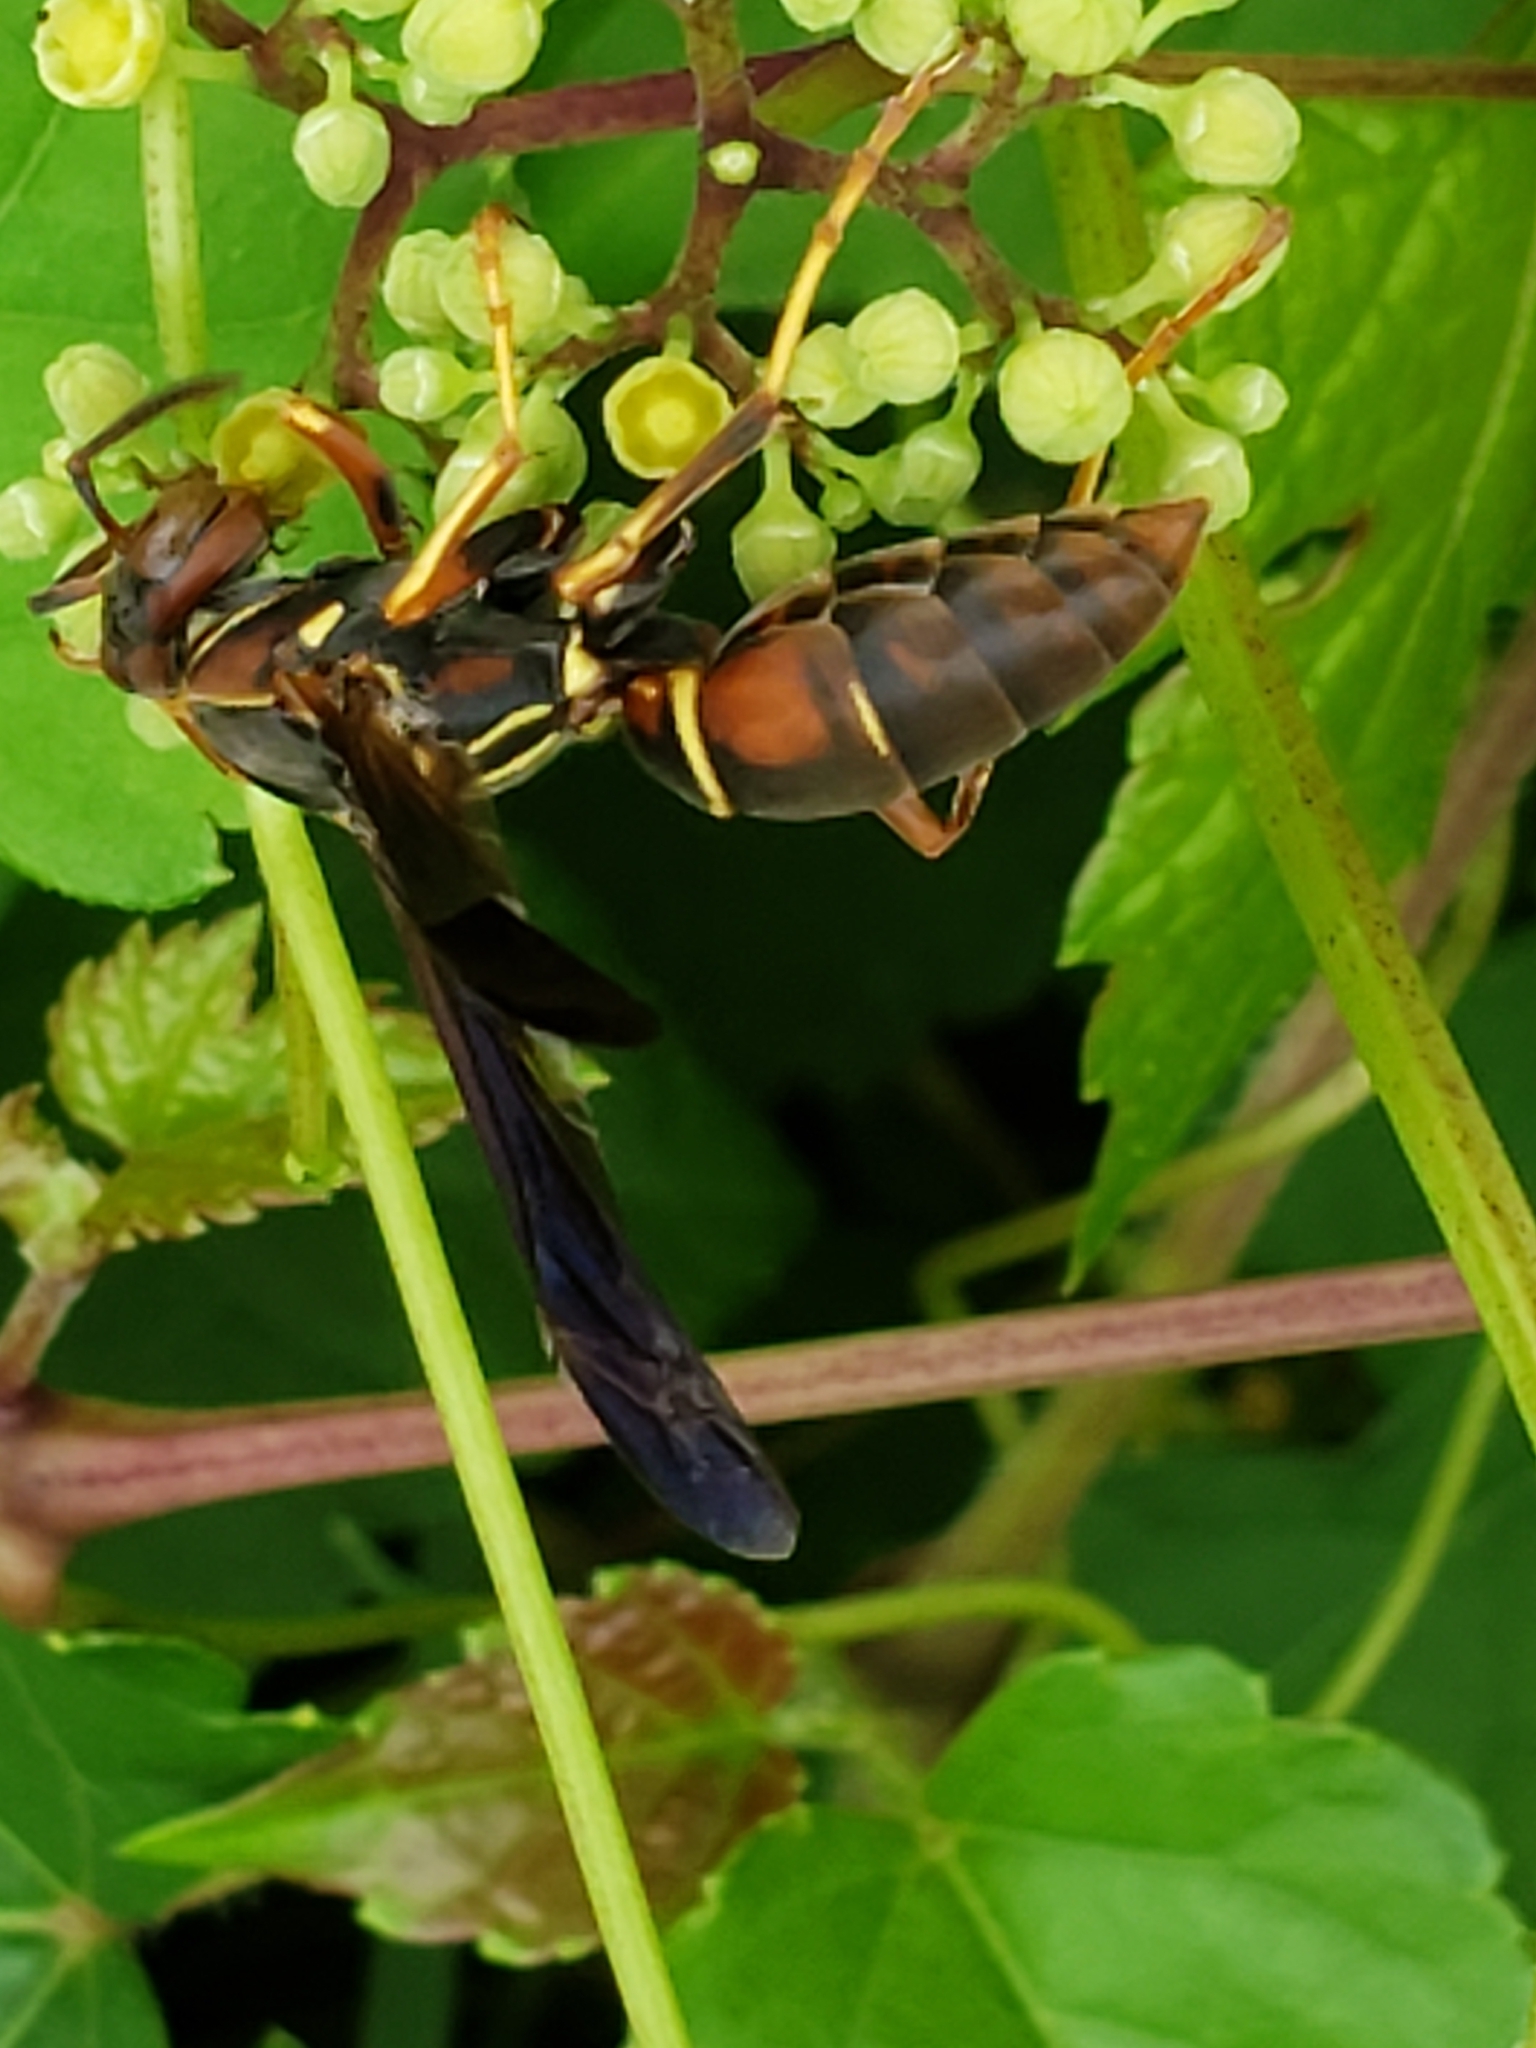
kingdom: Animalia
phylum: Arthropoda
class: Insecta
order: Hymenoptera
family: Eumenidae
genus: Polistes
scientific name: Polistes fuscatus
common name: Dark paper wasp
